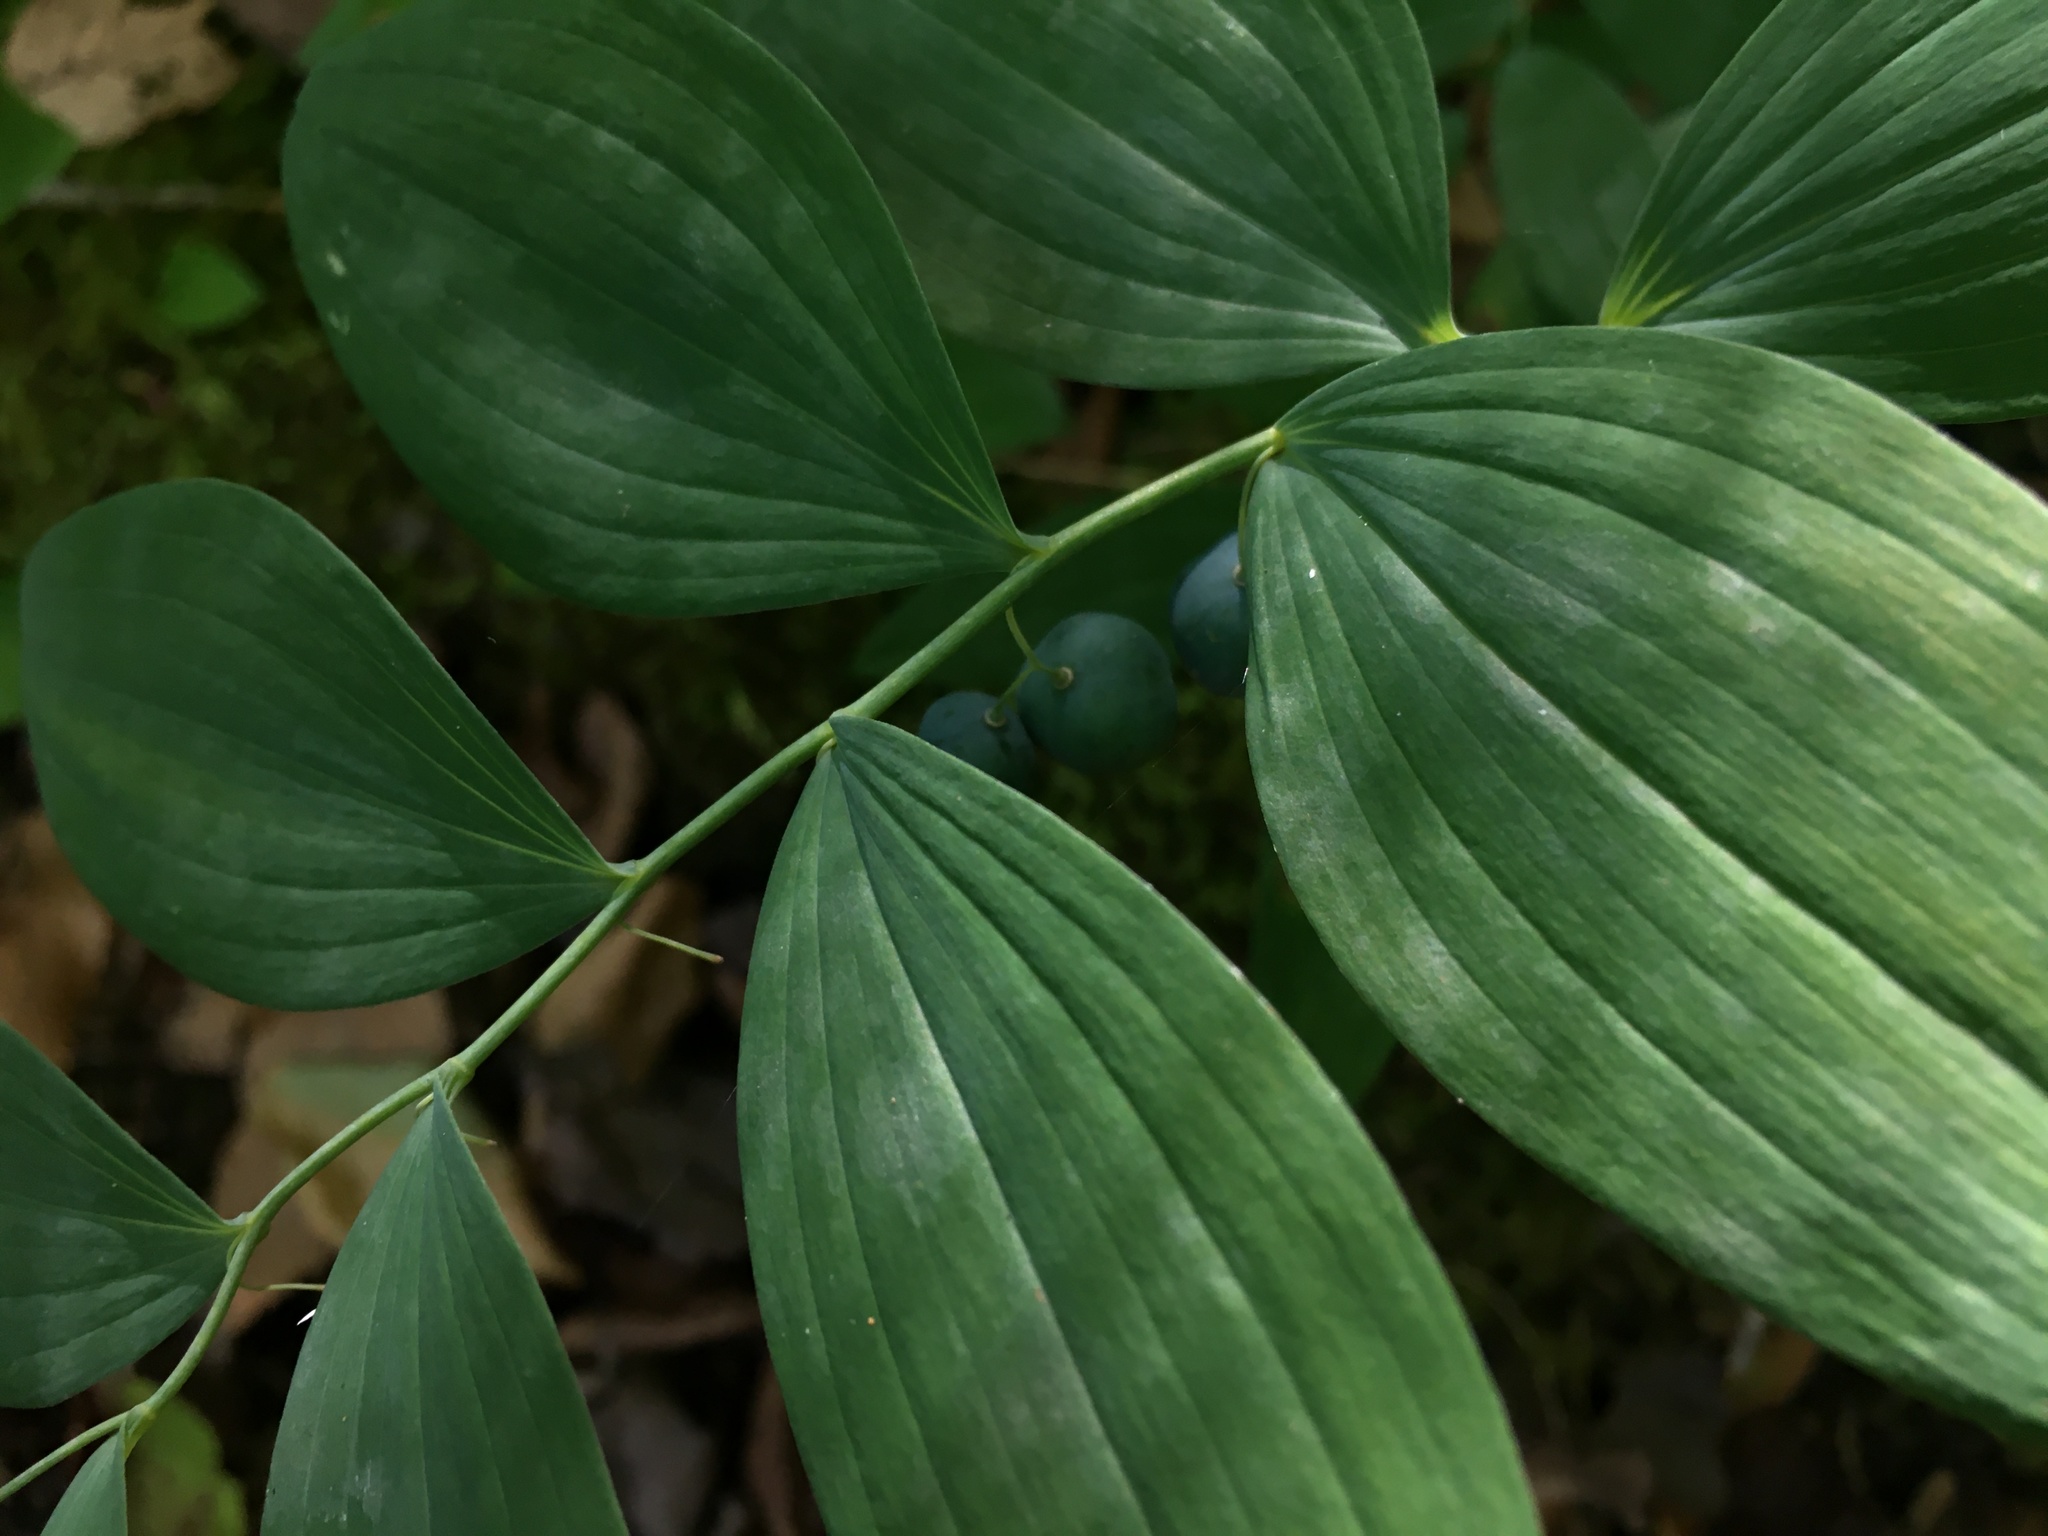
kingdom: Plantae
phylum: Tracheophyta
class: Liliopsida
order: Asparagales
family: Asparagaceae
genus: Polygonatum
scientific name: Polygonatum pubescens
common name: Downy solomon's seal
